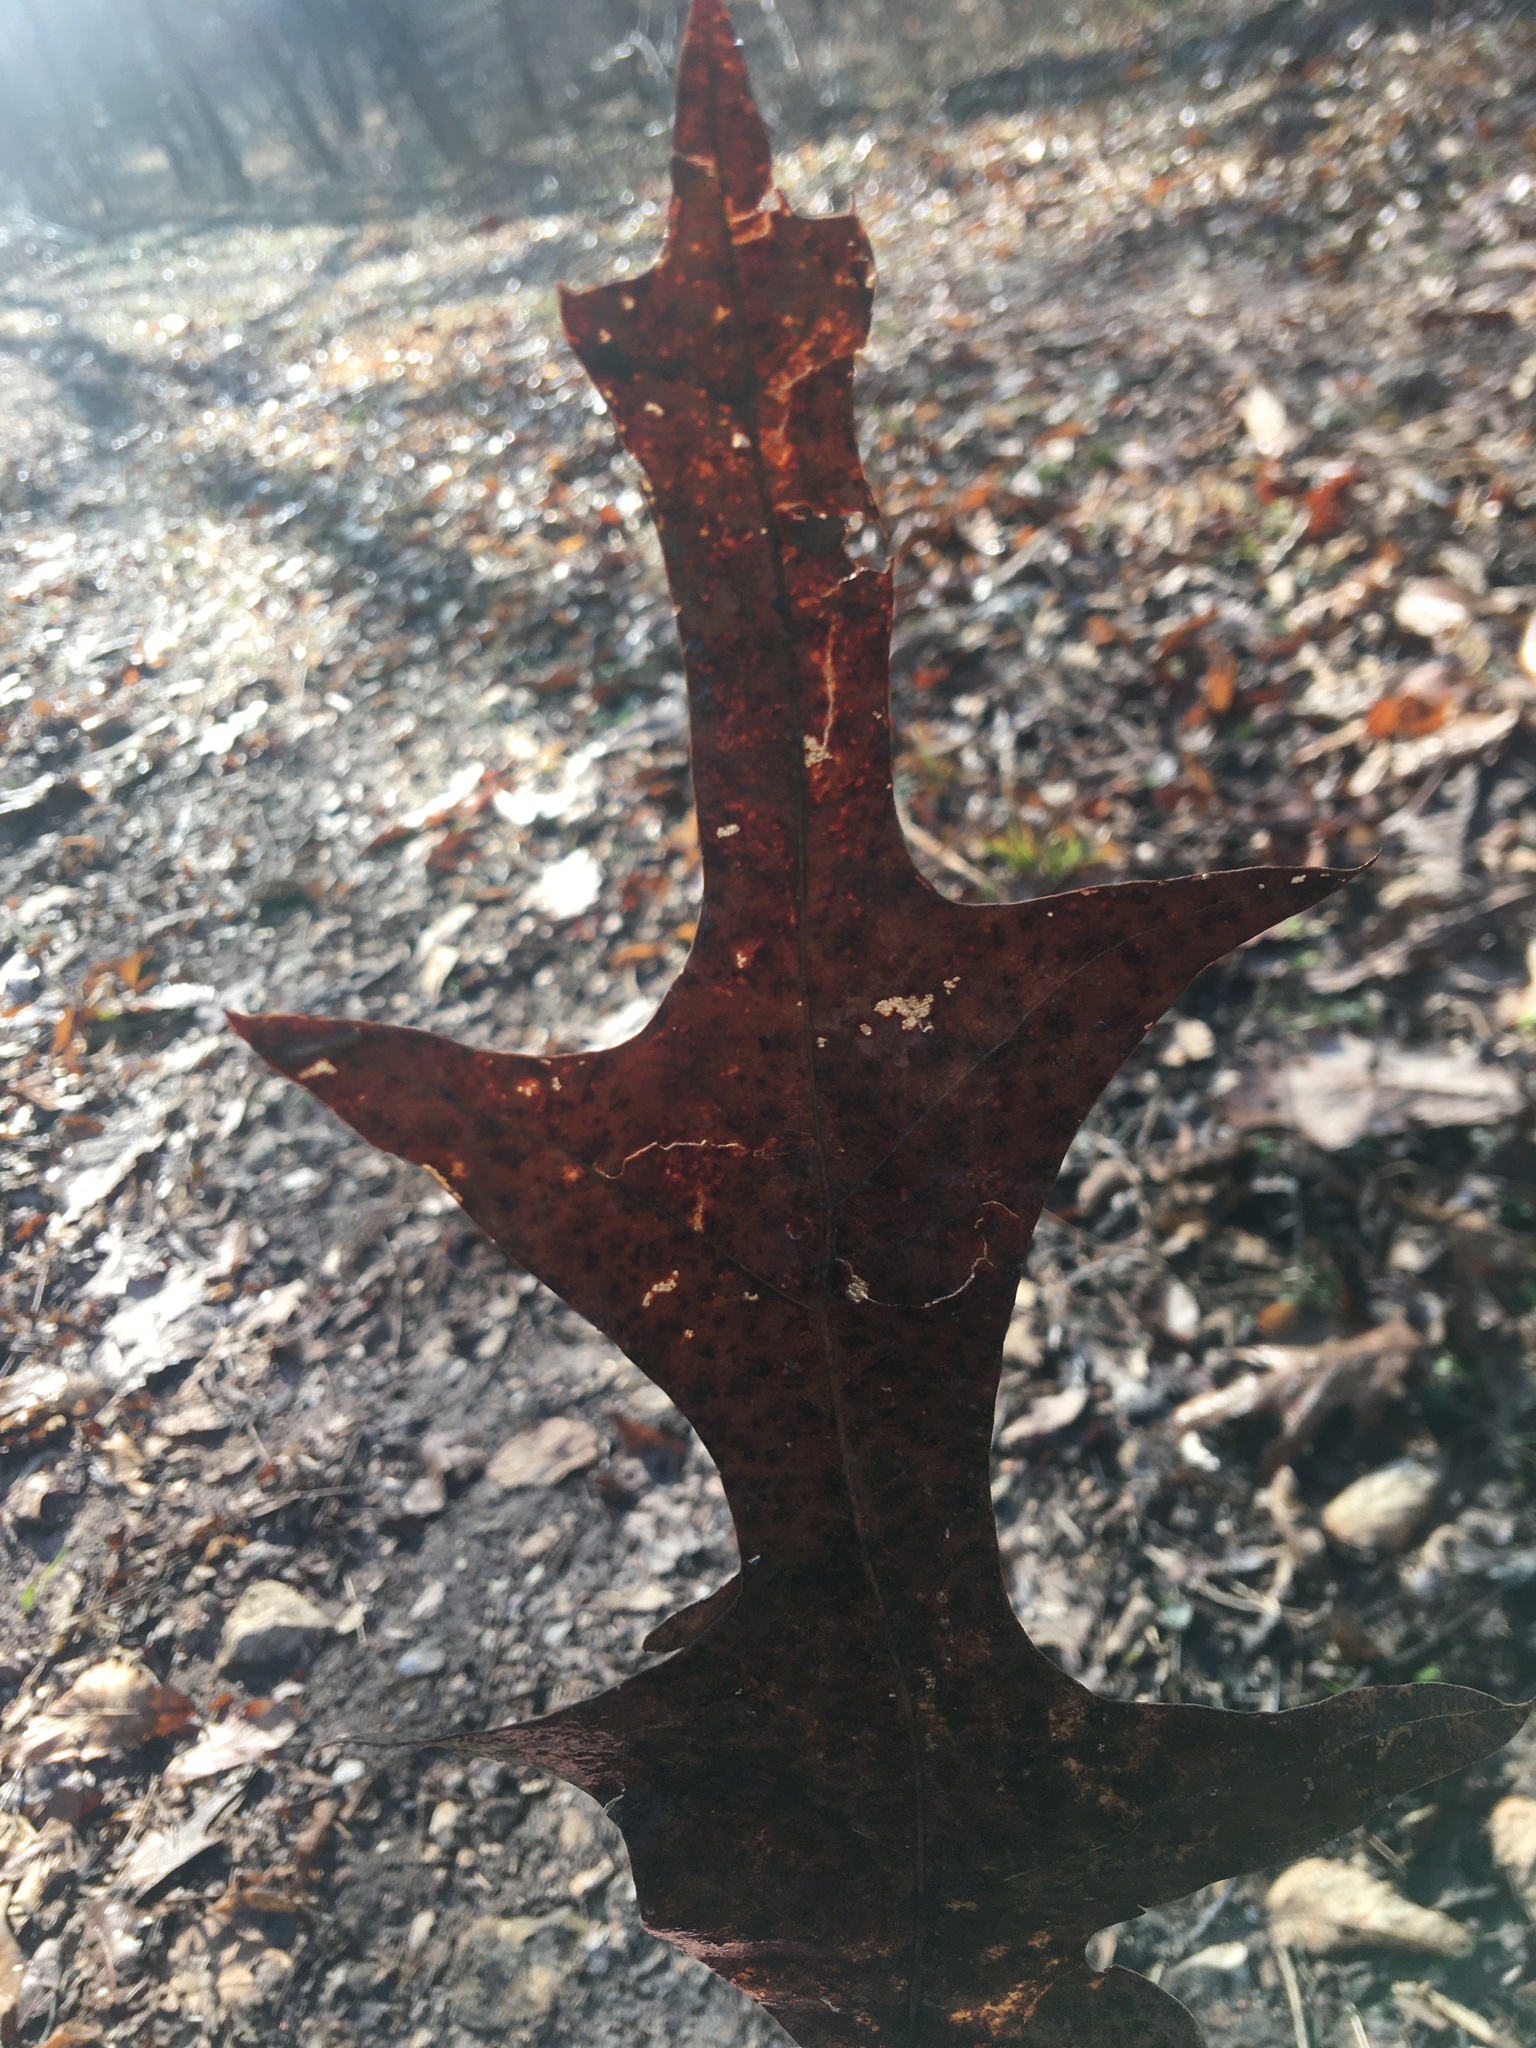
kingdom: Plantae
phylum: Tracheophyta
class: Magnoliopsida
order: Fagales
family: Fagaceae
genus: Quercus
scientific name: Quercus falcata
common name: Southern red oak
